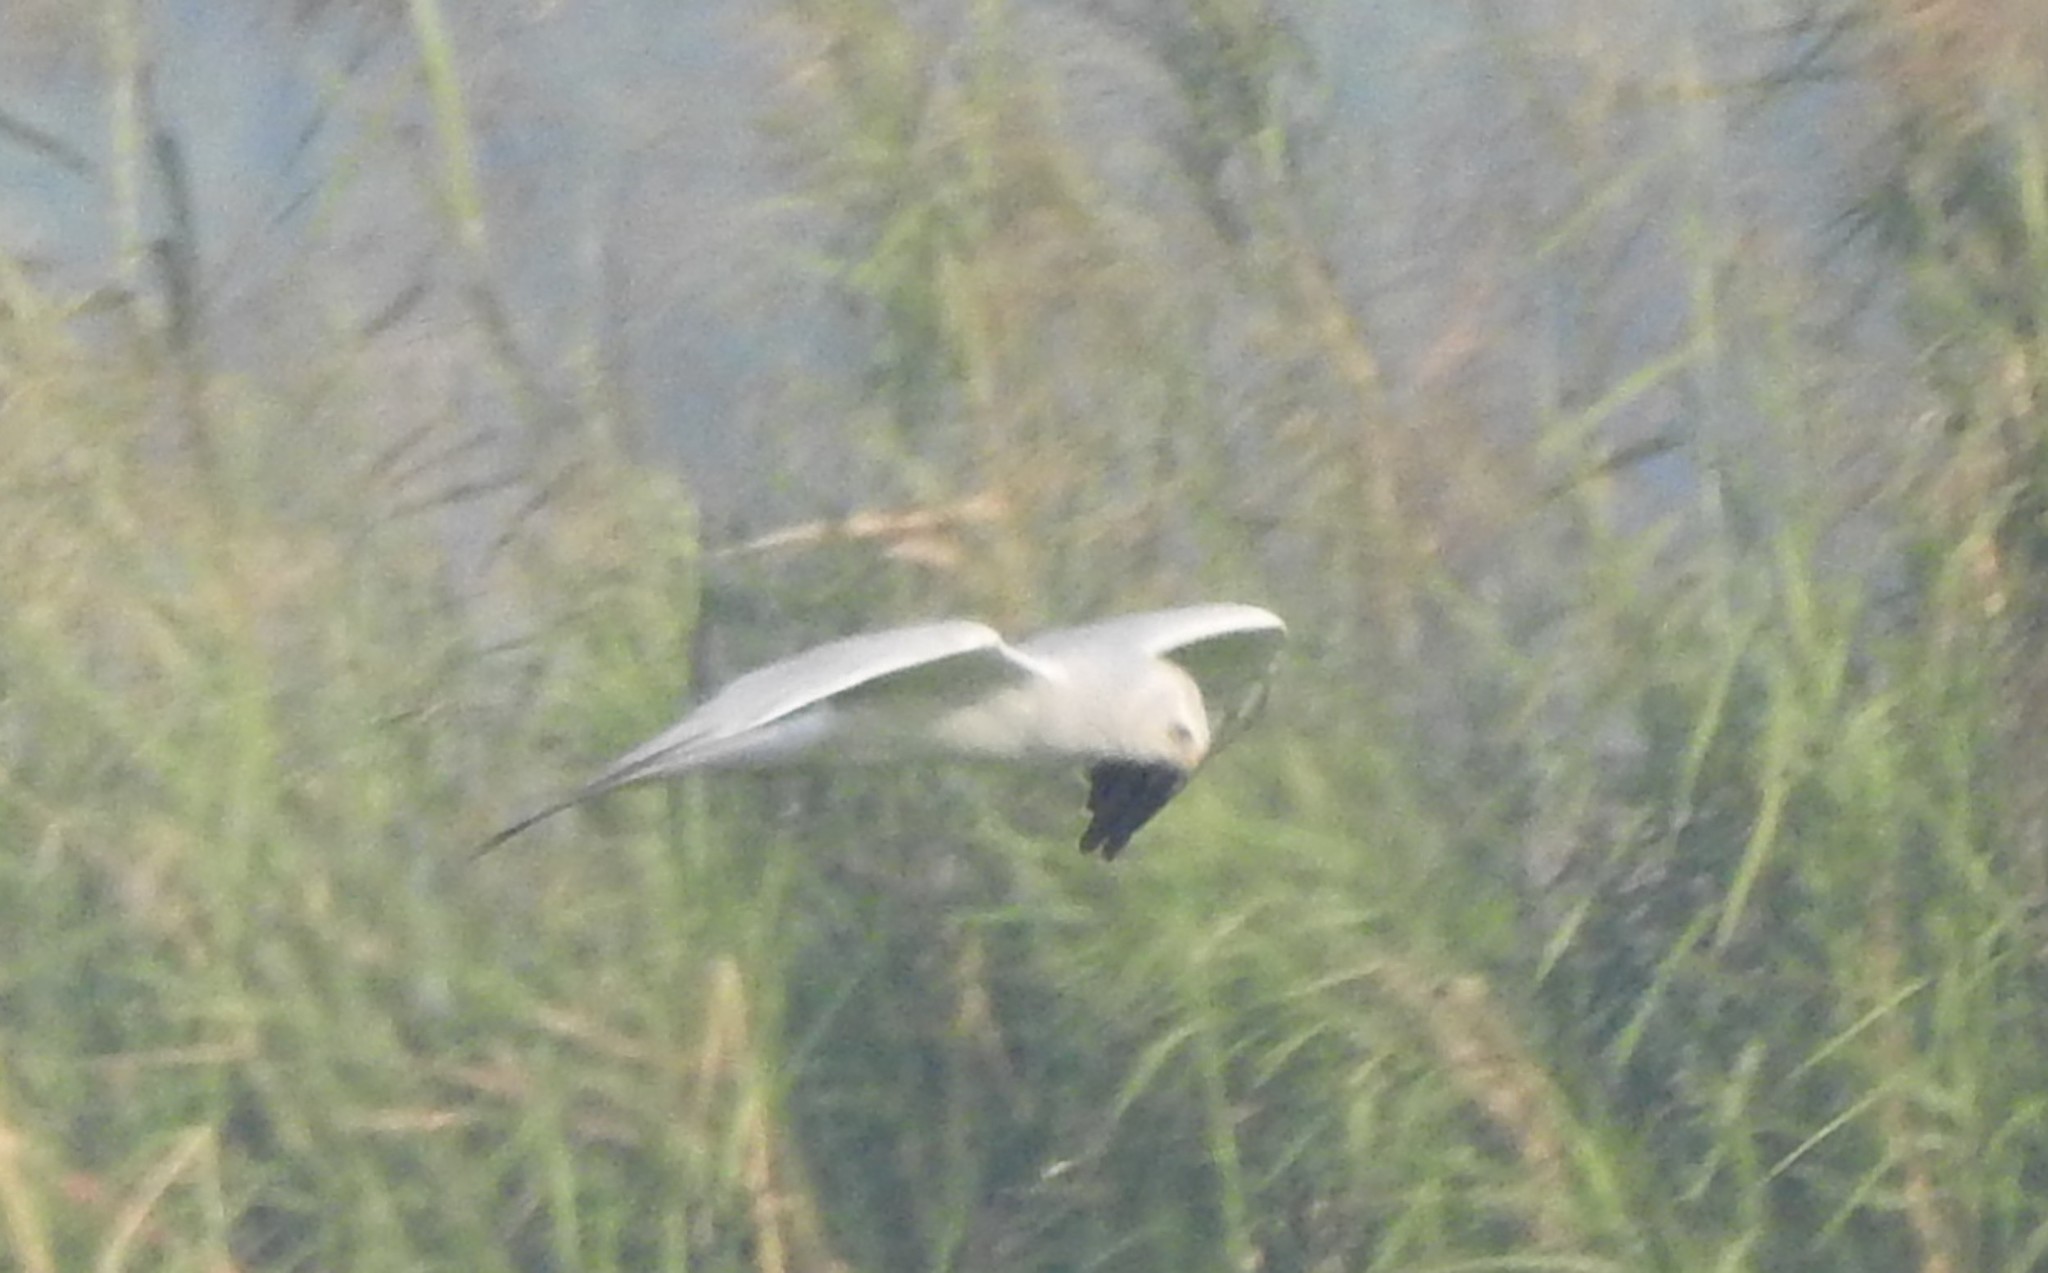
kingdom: Animalia
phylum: Chordata
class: Aves
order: Accipitriformes
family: Accipitridae
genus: Circus
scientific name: Circus macrourus
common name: Pallid harrier
